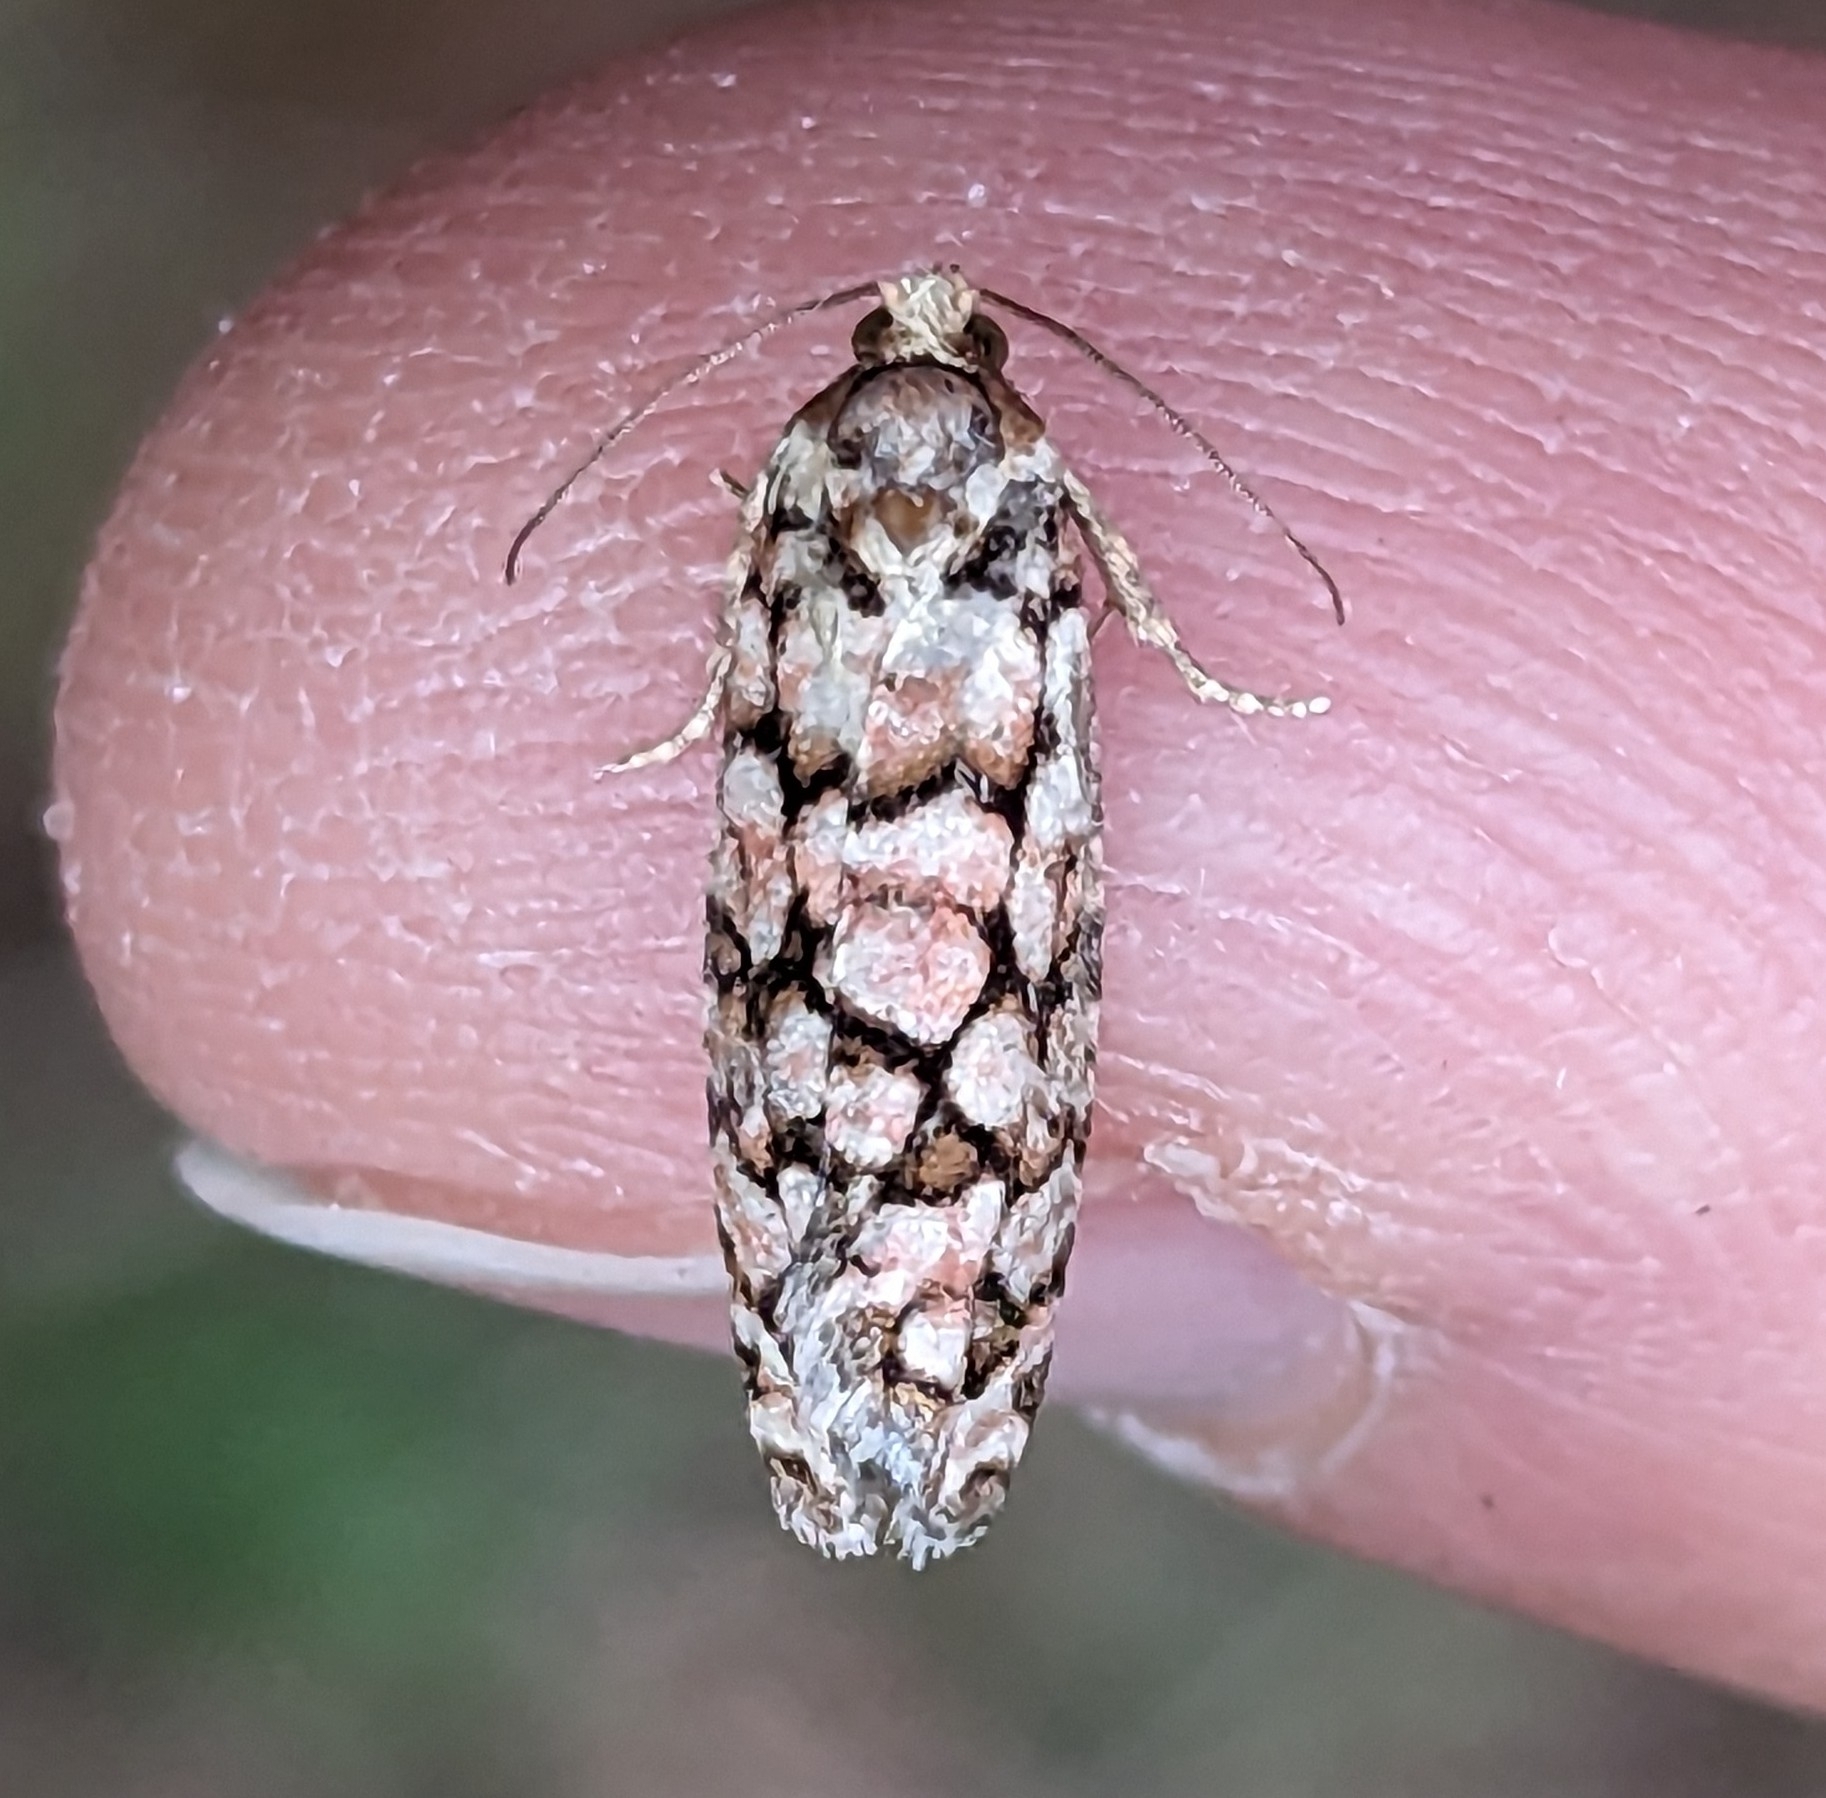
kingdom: Animalia
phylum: Arthropoda
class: Insecta
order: Lepidoptera
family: Tortricidae
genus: Barbara
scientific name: Barbara mappana
